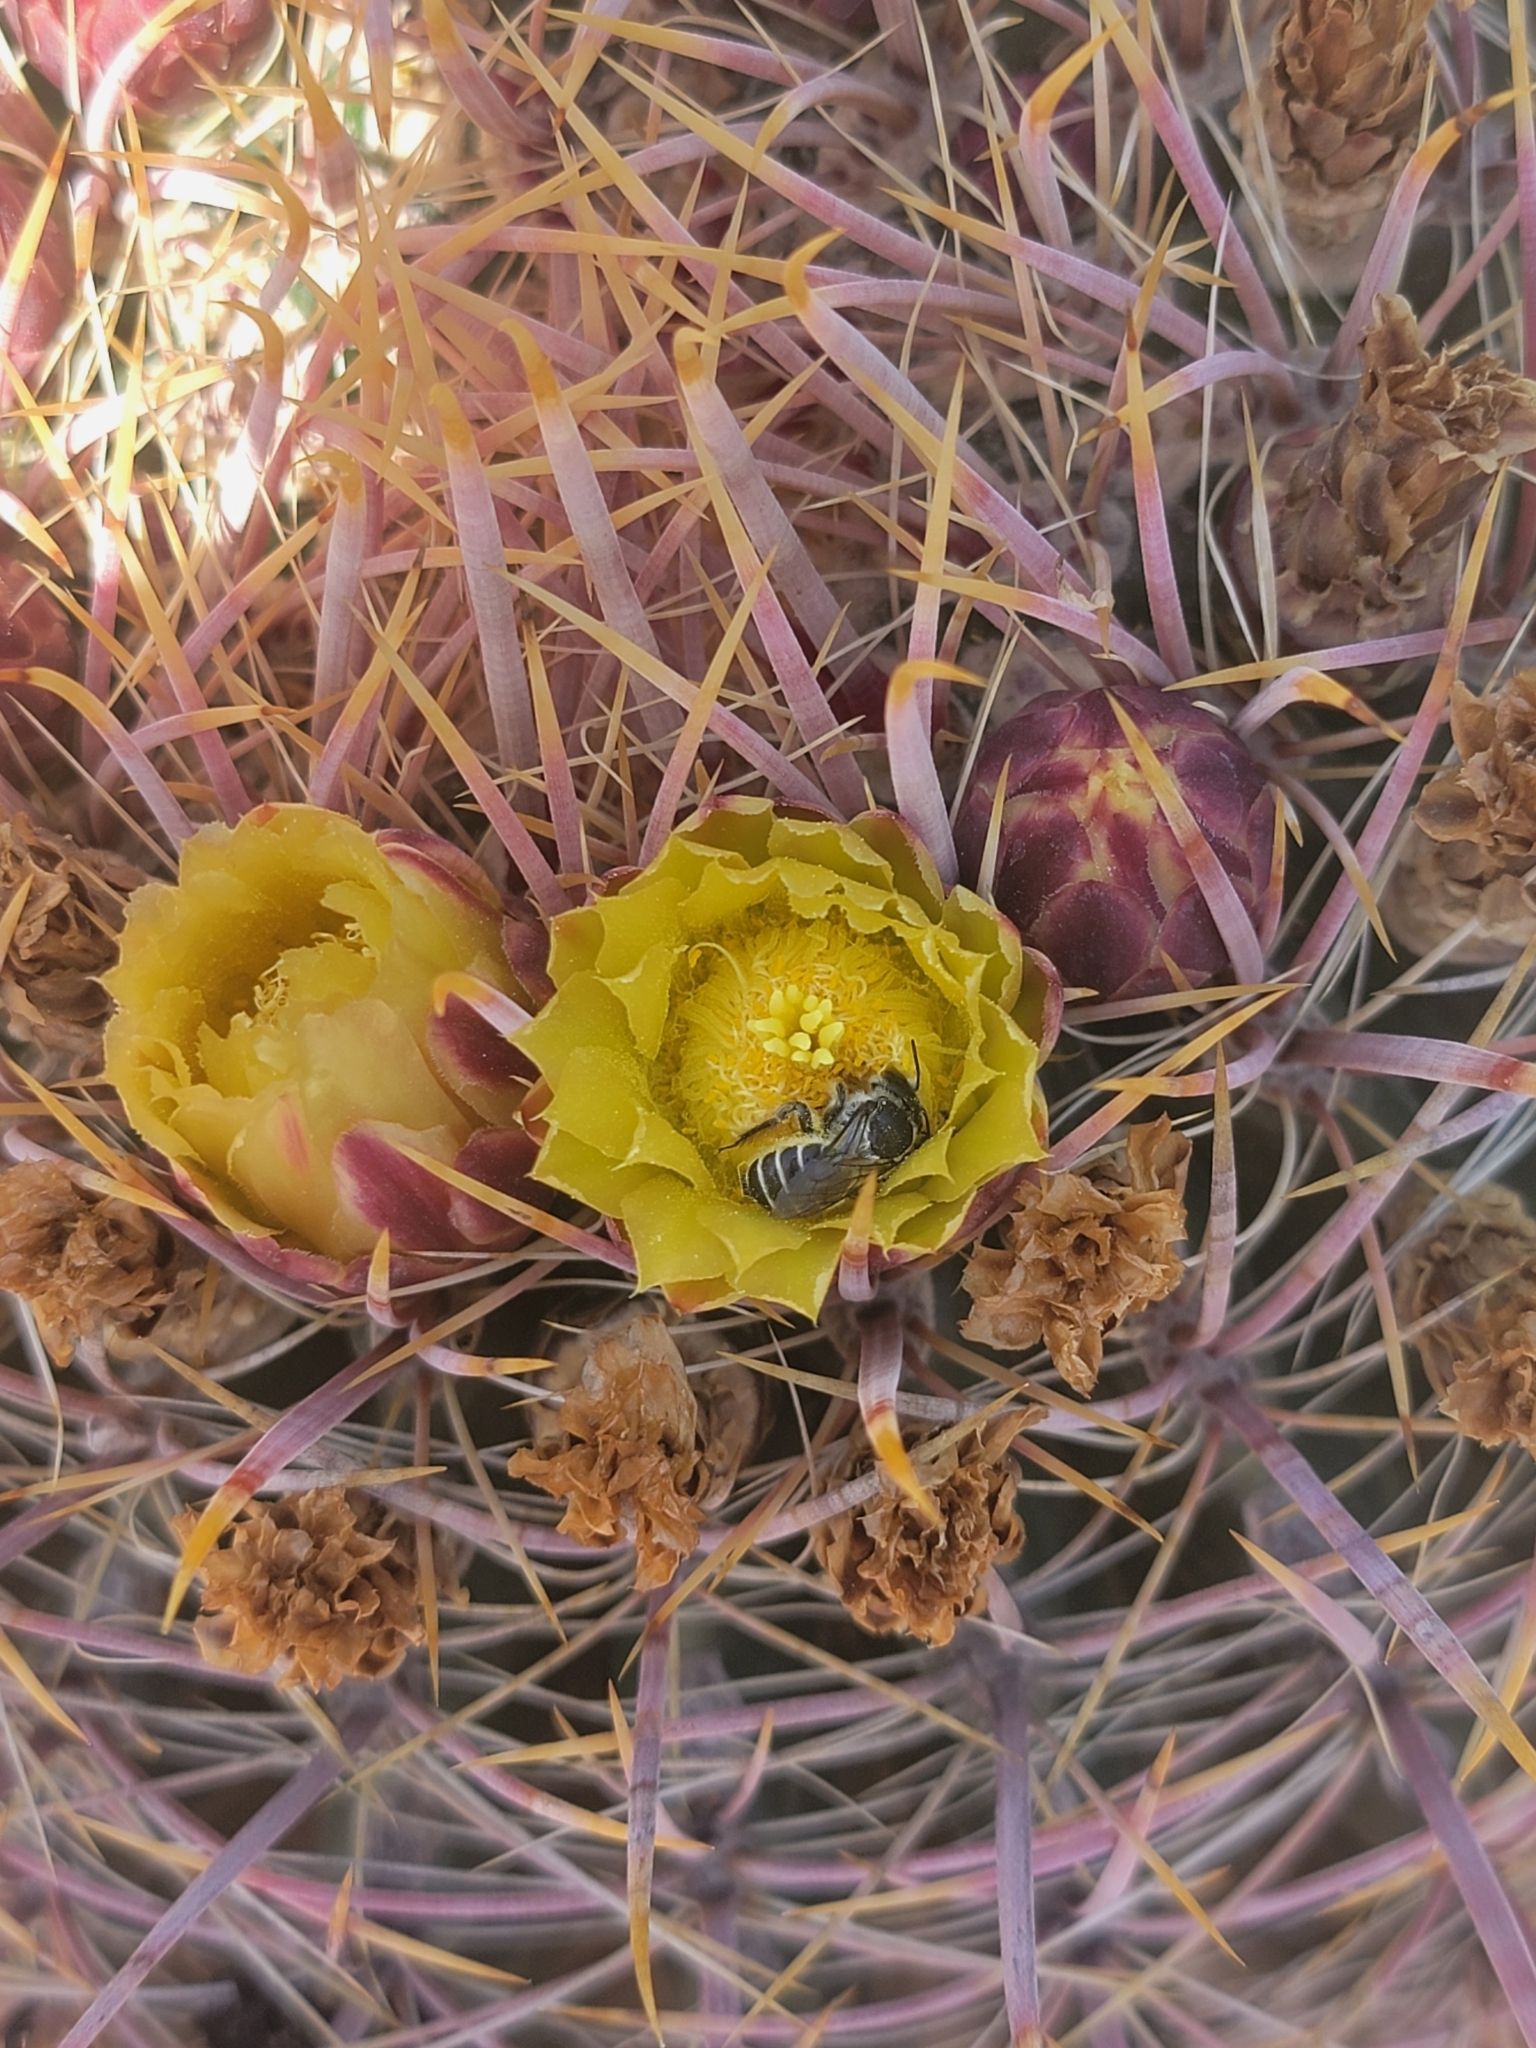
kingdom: Animalia
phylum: Arthropoda
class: Insecta
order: Hymenoptera
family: Megachilidae
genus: Lithurgopsis
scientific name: Lithurgopsis apicalis
